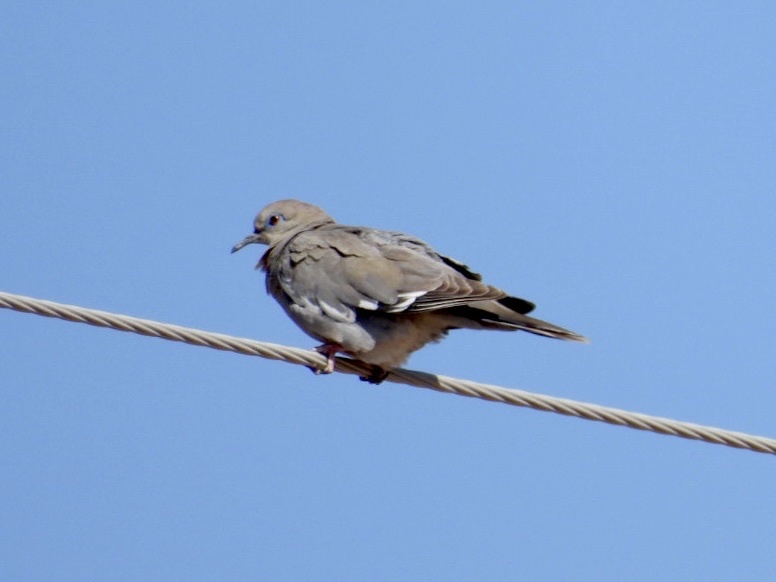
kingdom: Animalia
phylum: Chordata
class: Aves
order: Columbiformes
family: Columbidae
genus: Zenaida
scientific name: Zenaida asiatica
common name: White-winged dove
